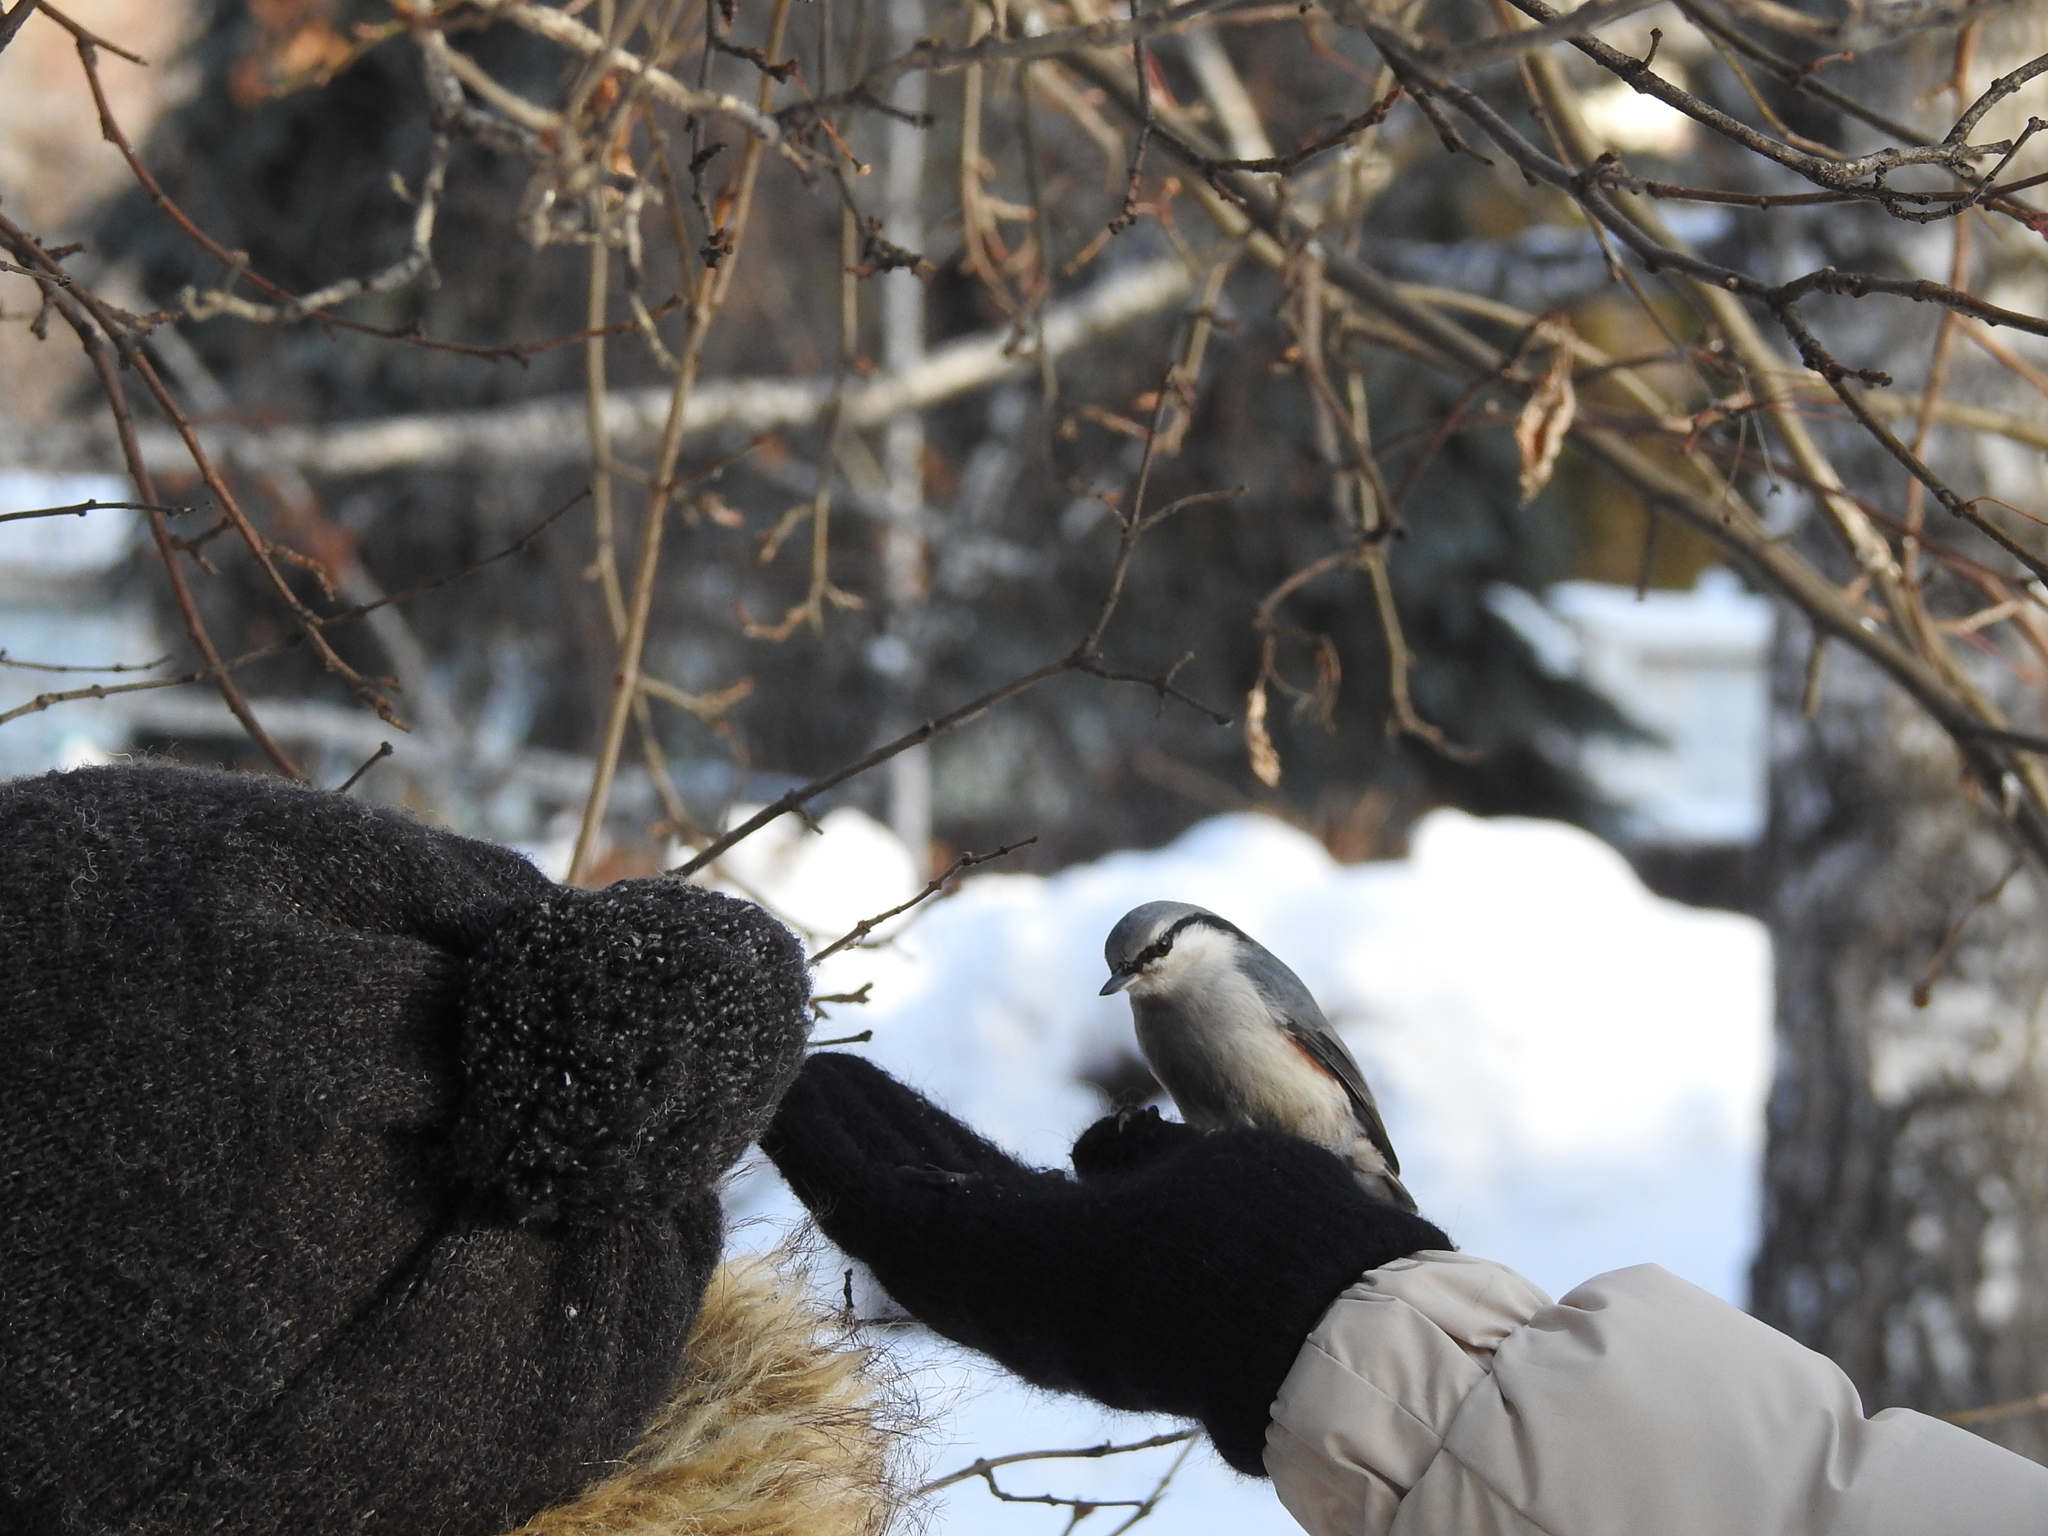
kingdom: Animalia
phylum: Chordata
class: Aves
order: Passeriformes
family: Sittidae
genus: Sitta
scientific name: Sitta europaea
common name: Eurasian nuthatch
